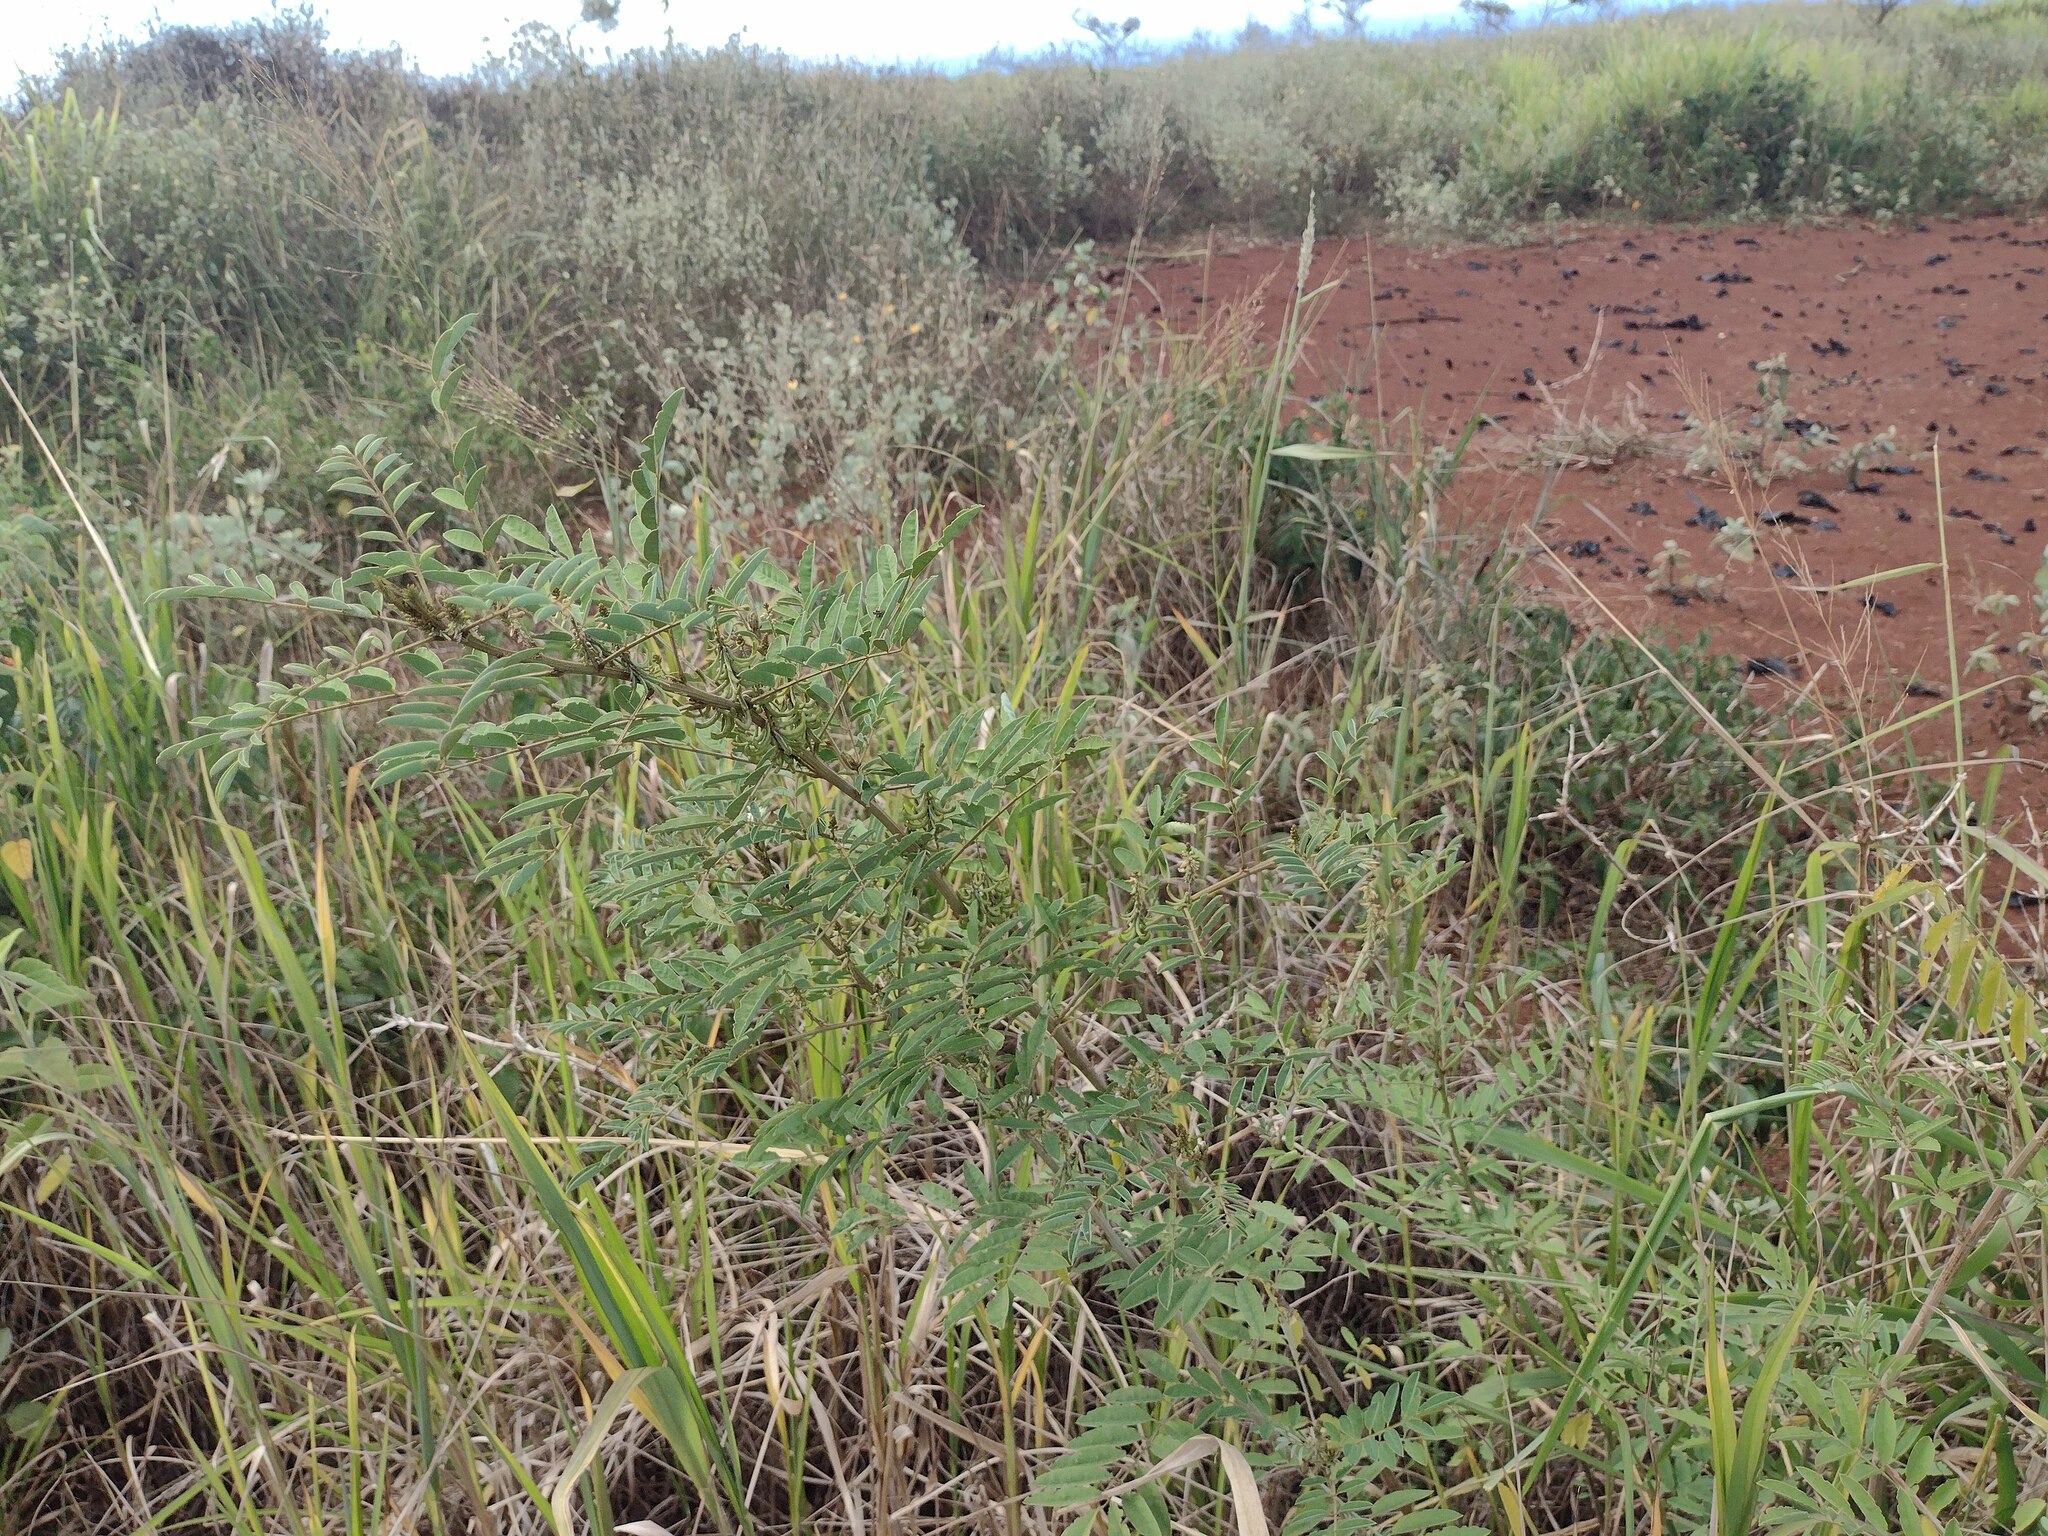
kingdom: Plantae
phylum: Tracheophyta
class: Magnoliopsida
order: Fabales
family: Fabaceae
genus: Indigofera
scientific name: Indigofera suffruticosa
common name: Anil de pasto
